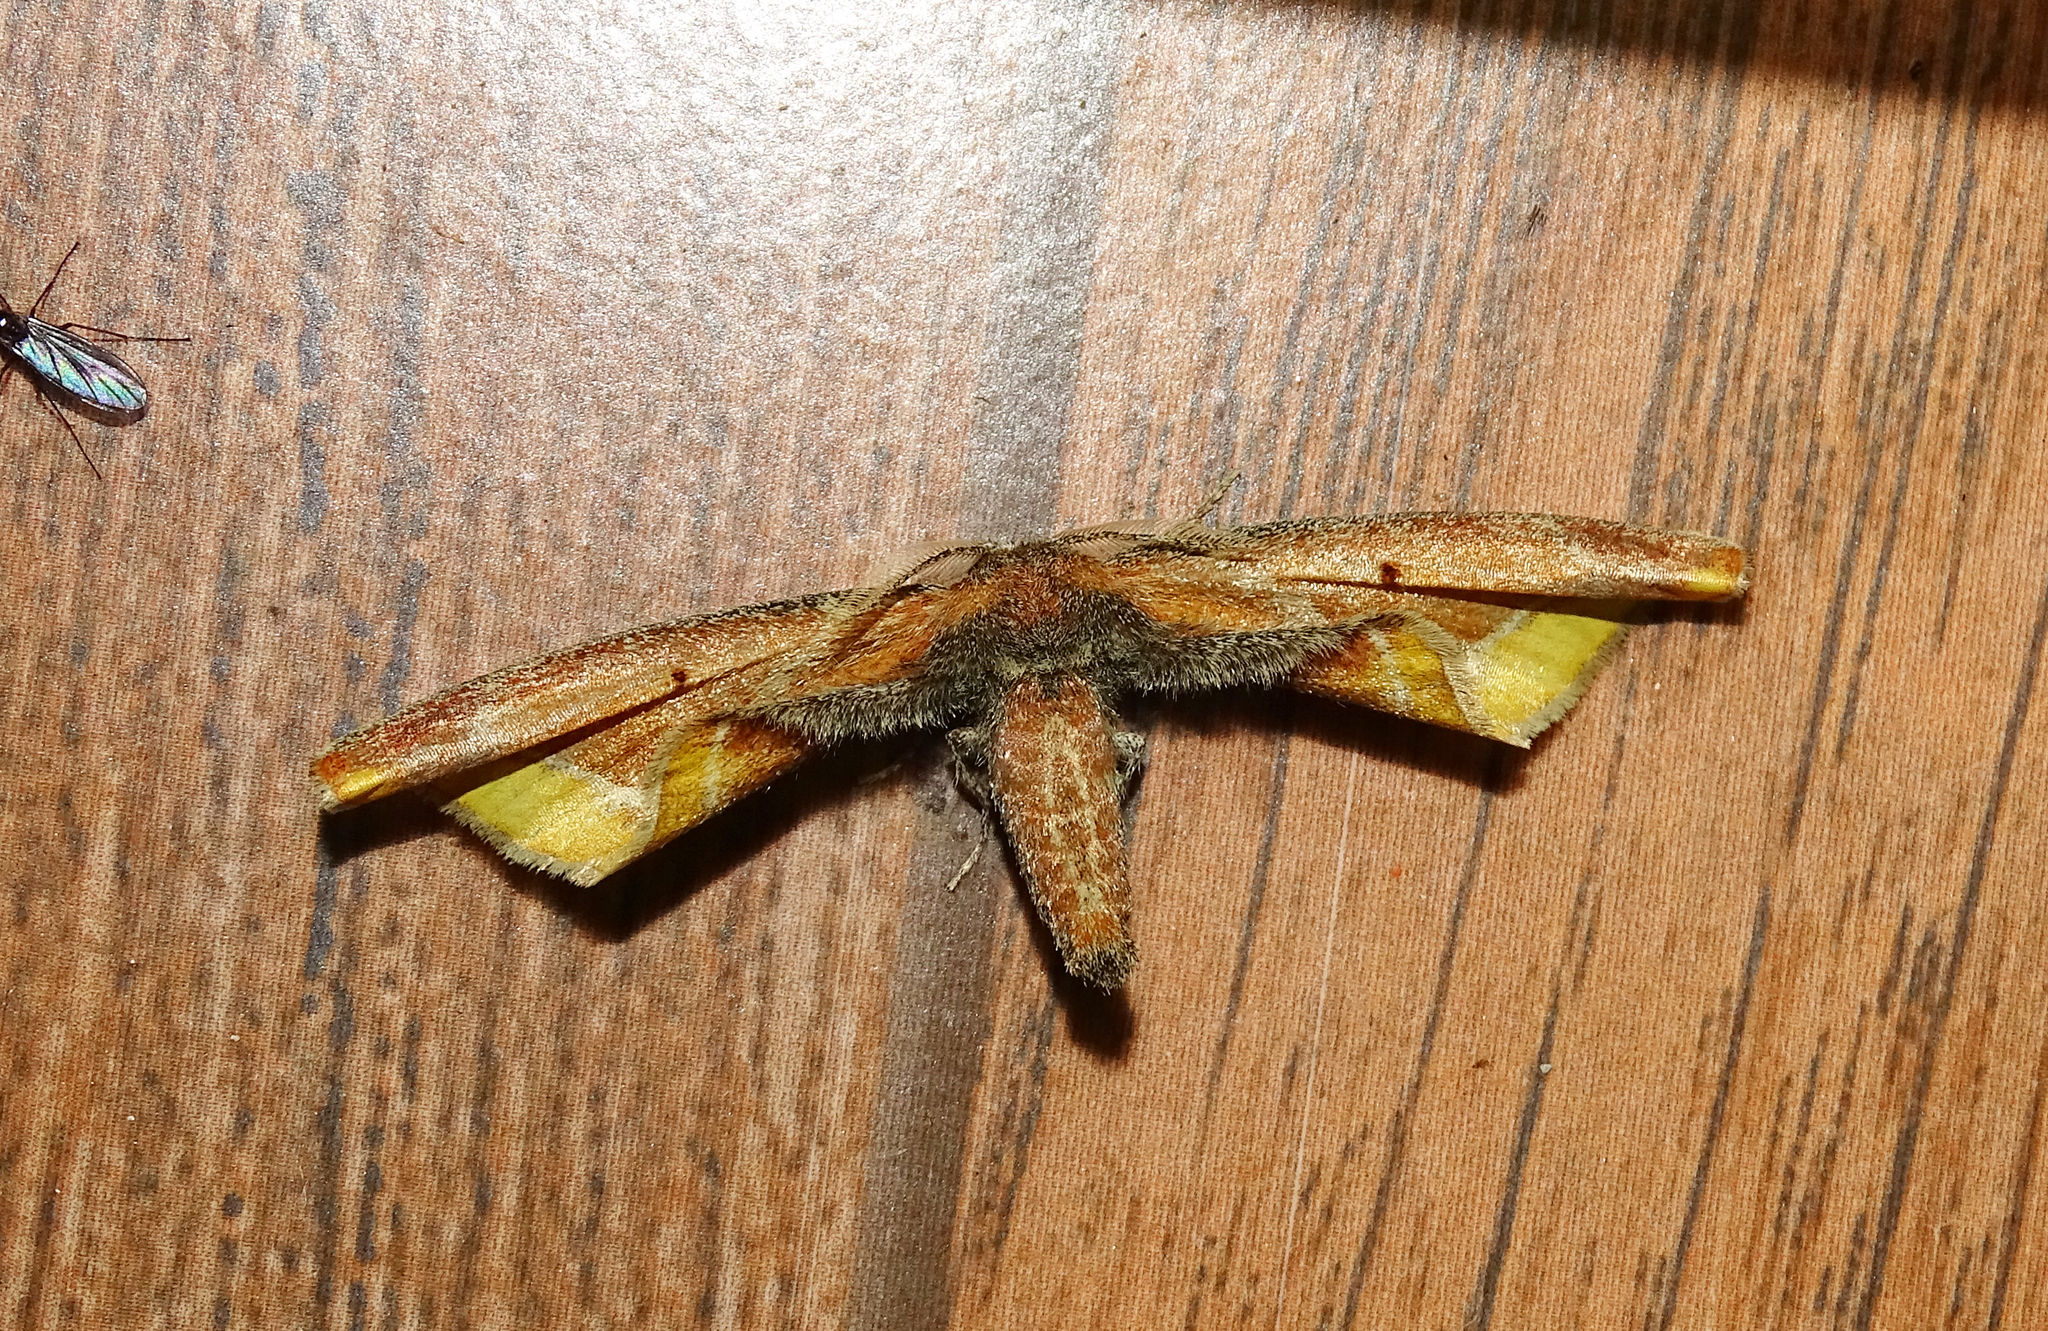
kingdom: Animalia
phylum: Arthropoda
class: Insecta
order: Lepidoptera
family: Phiditiidae
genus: Rolepa
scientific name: Rolepa delineata
